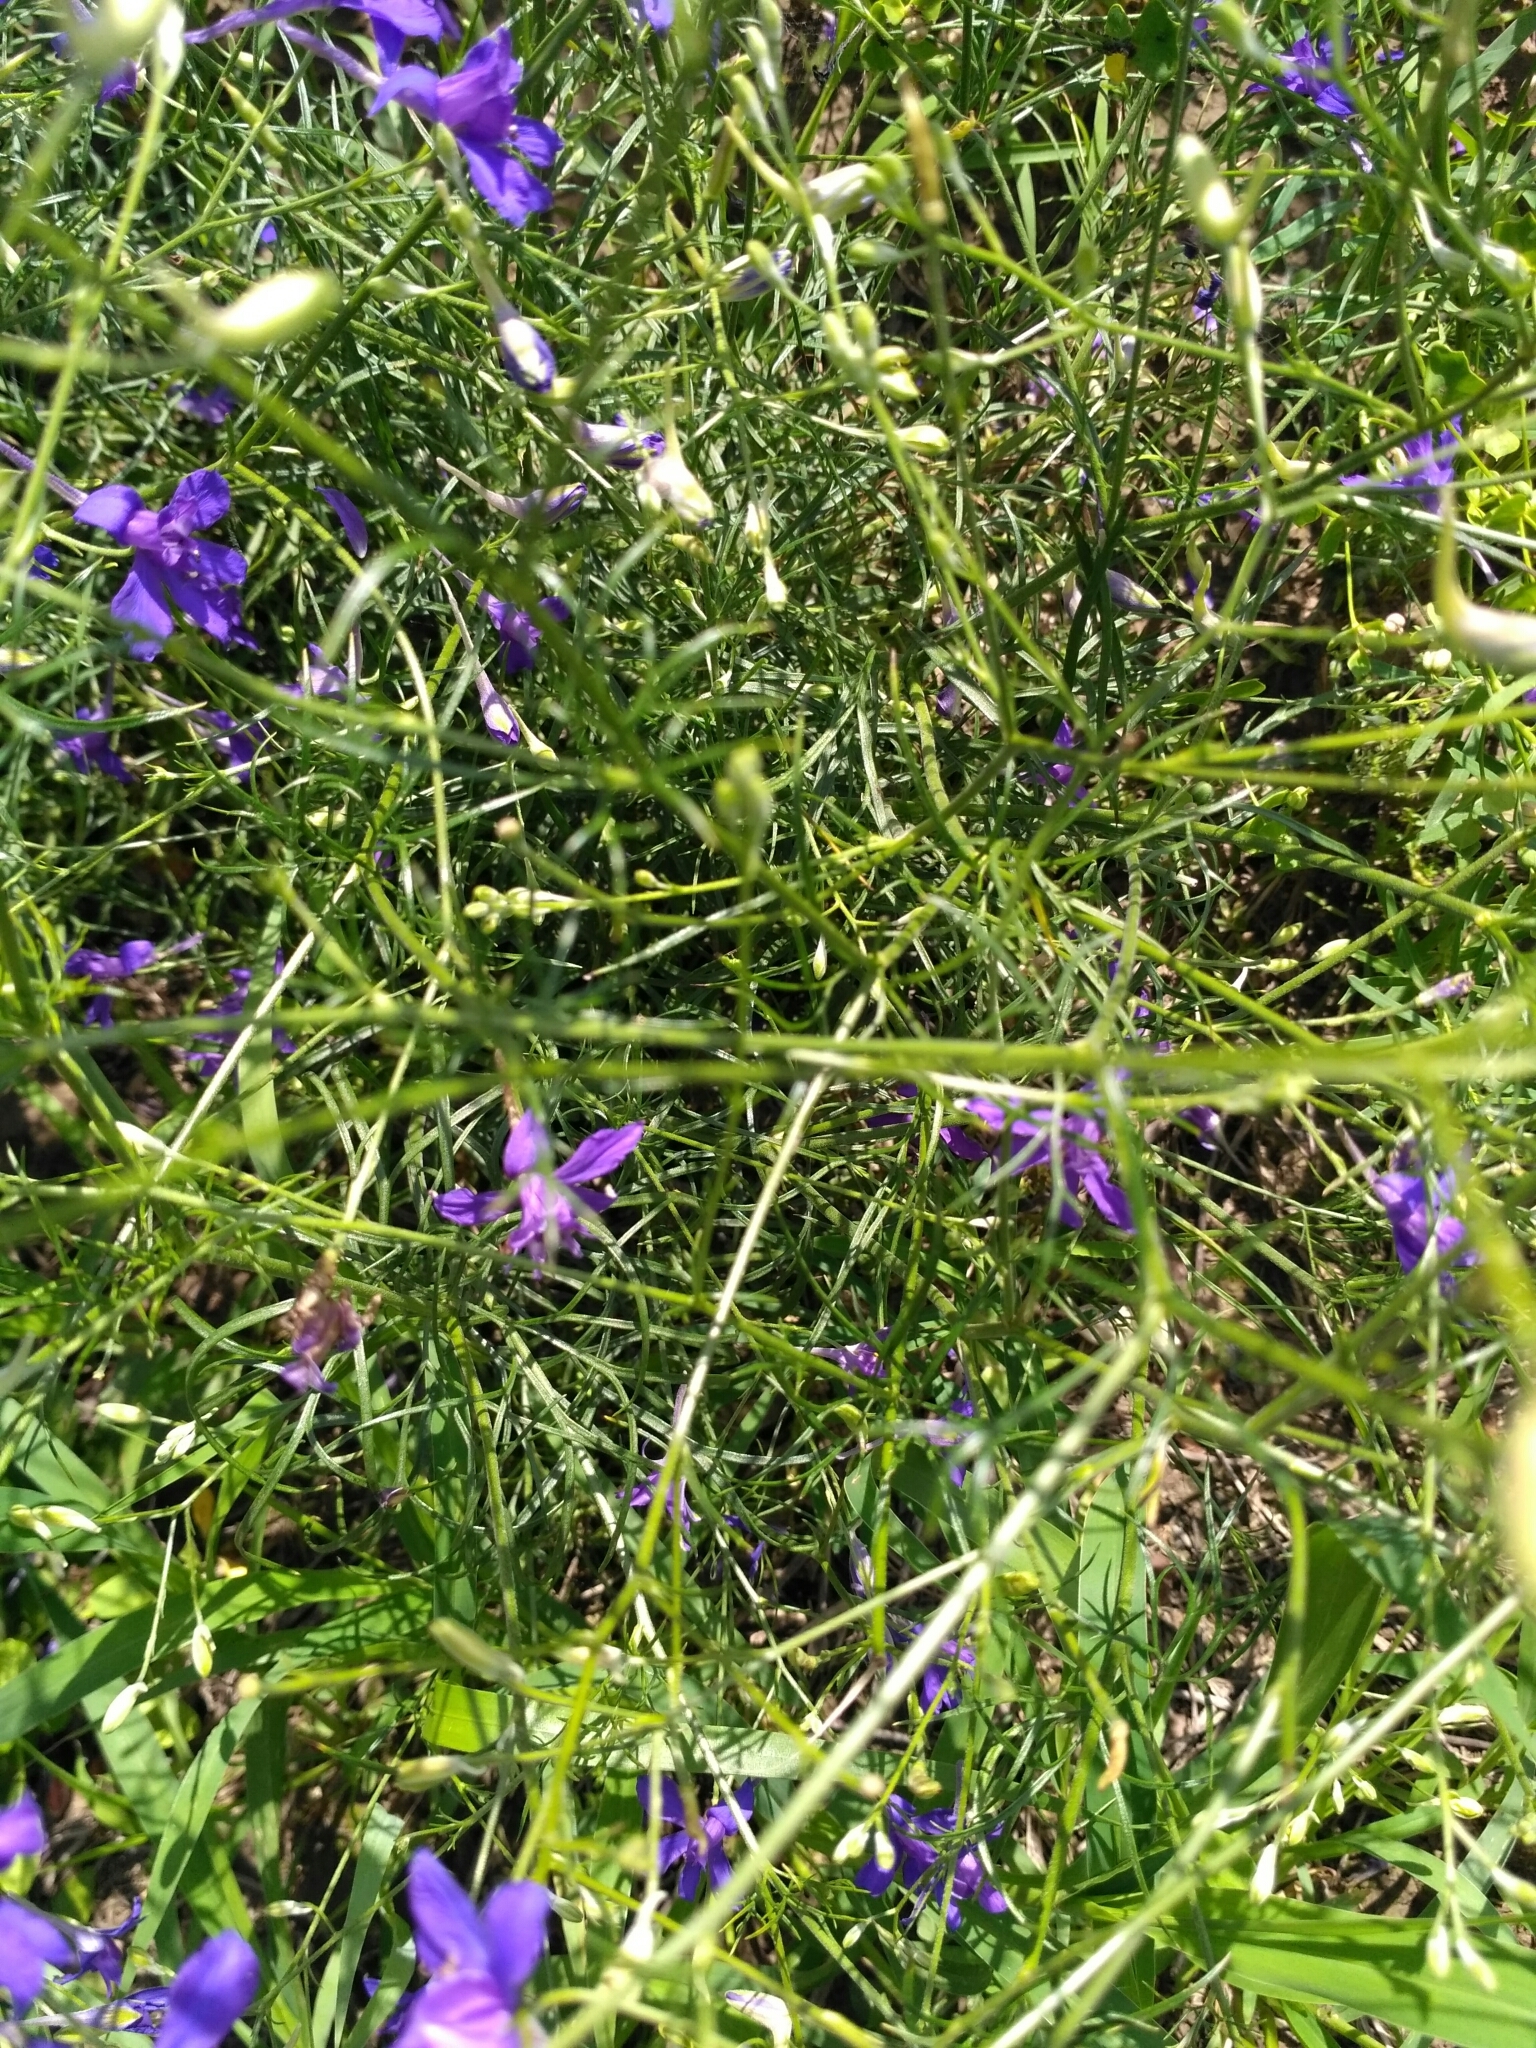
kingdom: Plantae
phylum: Tracheophyta
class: Magnoliopsida
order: Ranunculales
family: Ranunculaceae
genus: Delphinium
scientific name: Delphinium consolida
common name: Branching larkspur
